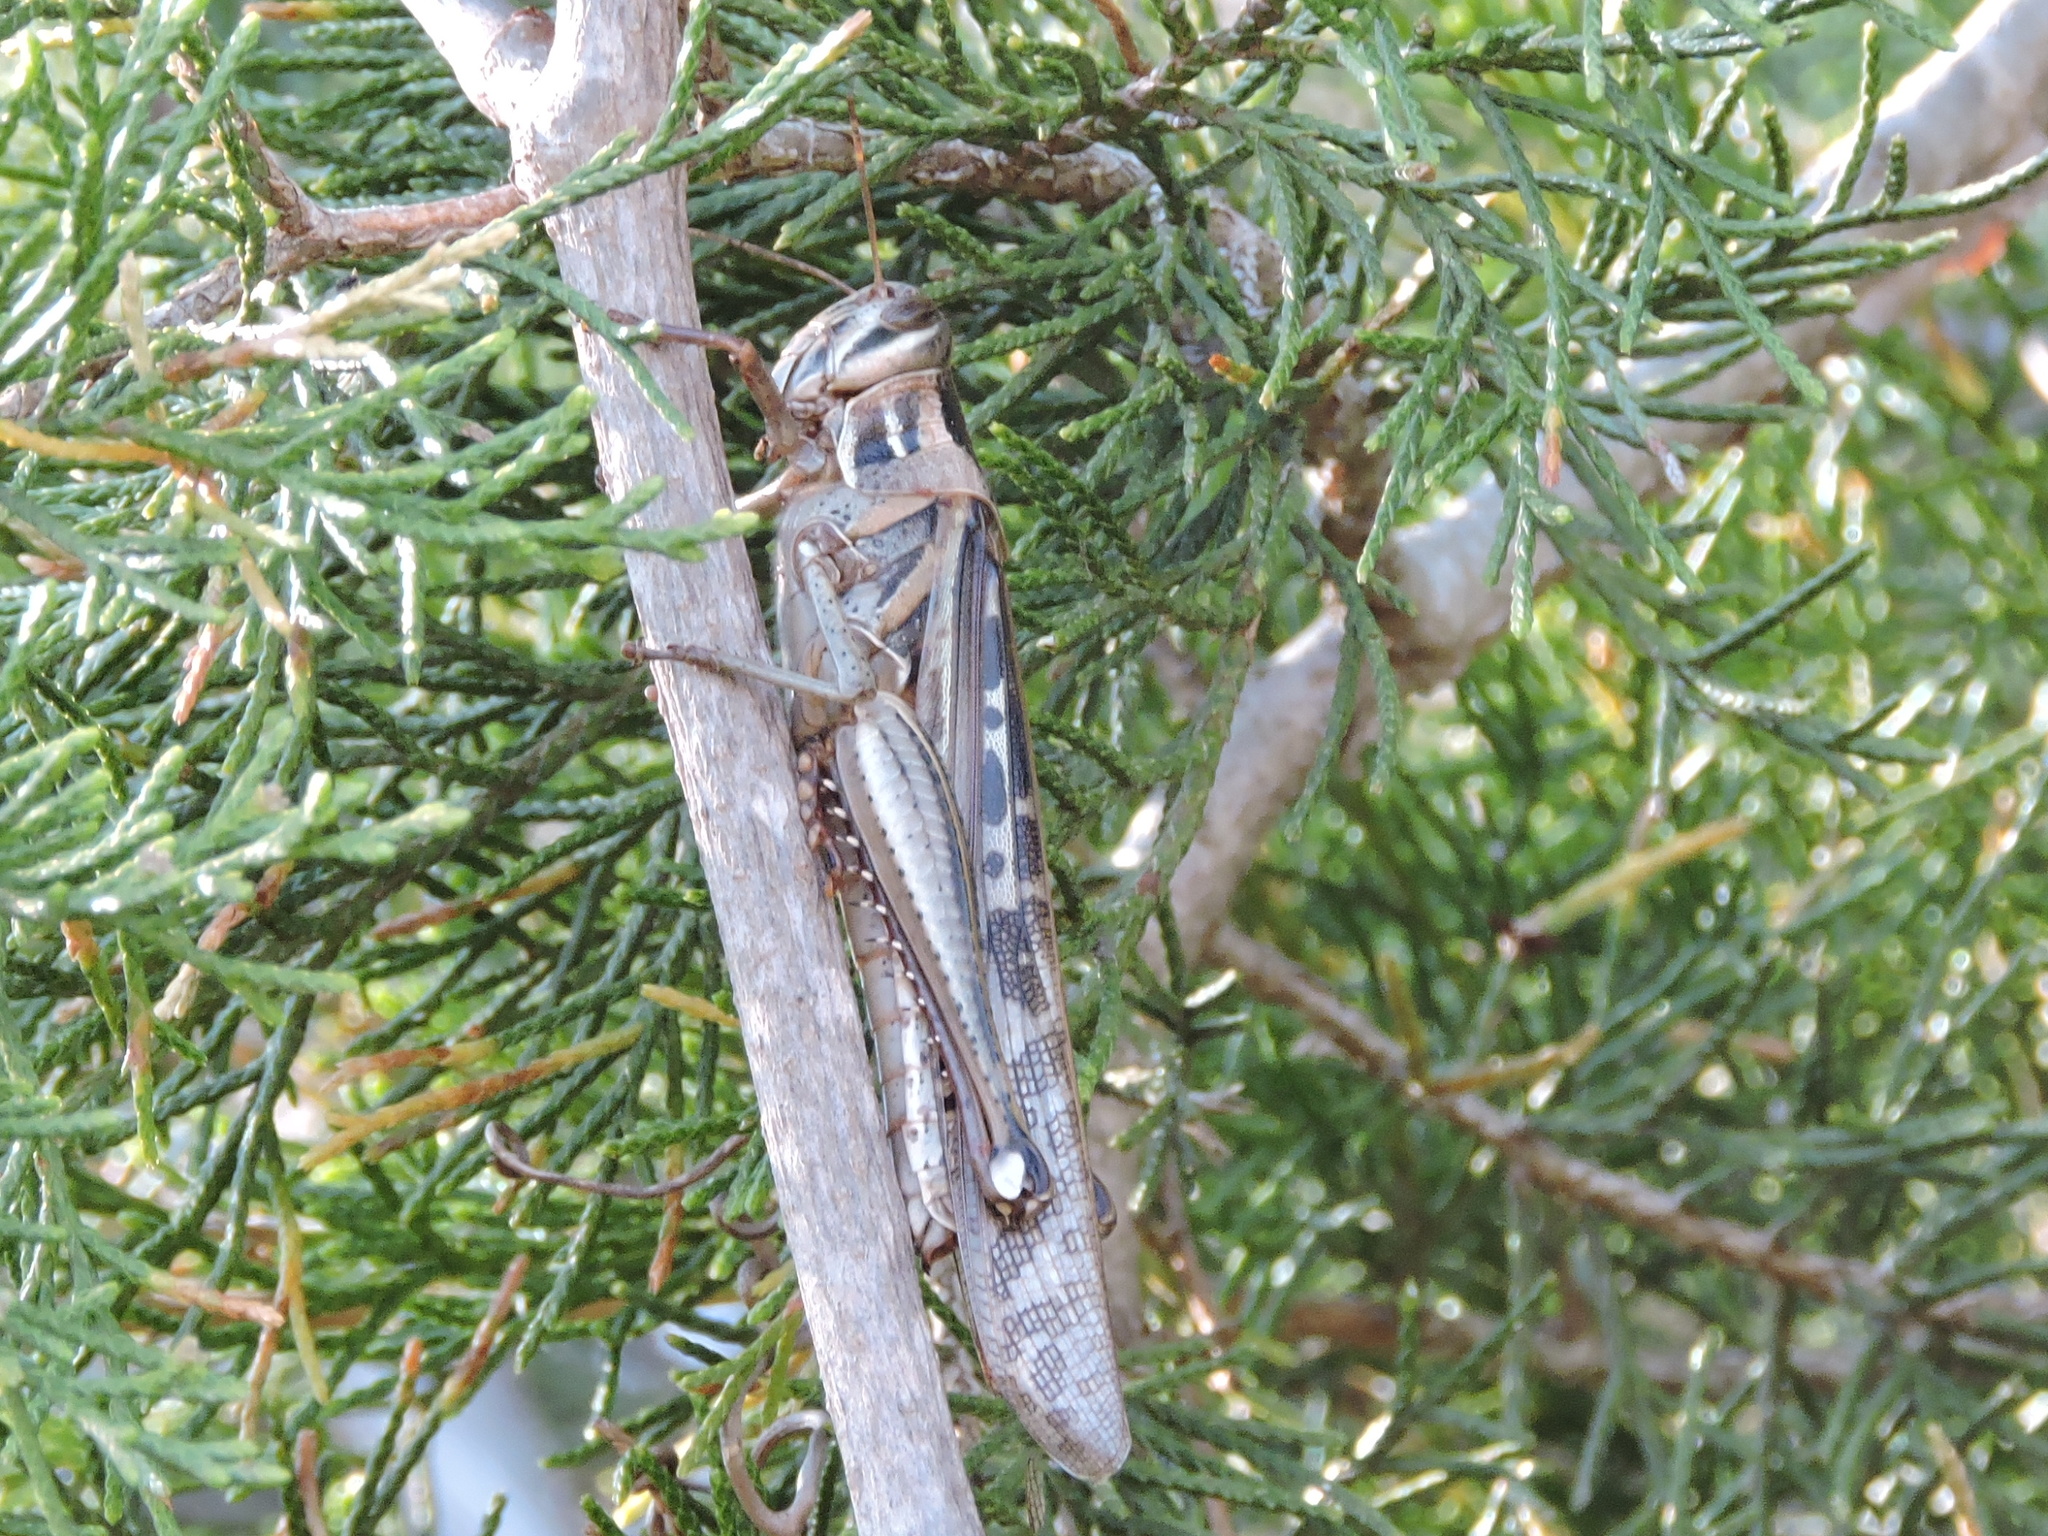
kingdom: Animalia
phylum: Arthropoda
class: Insecta
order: Orthoptera
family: Acrididae
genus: Schistocerca
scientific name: Schistocerca americana
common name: American bird locust
